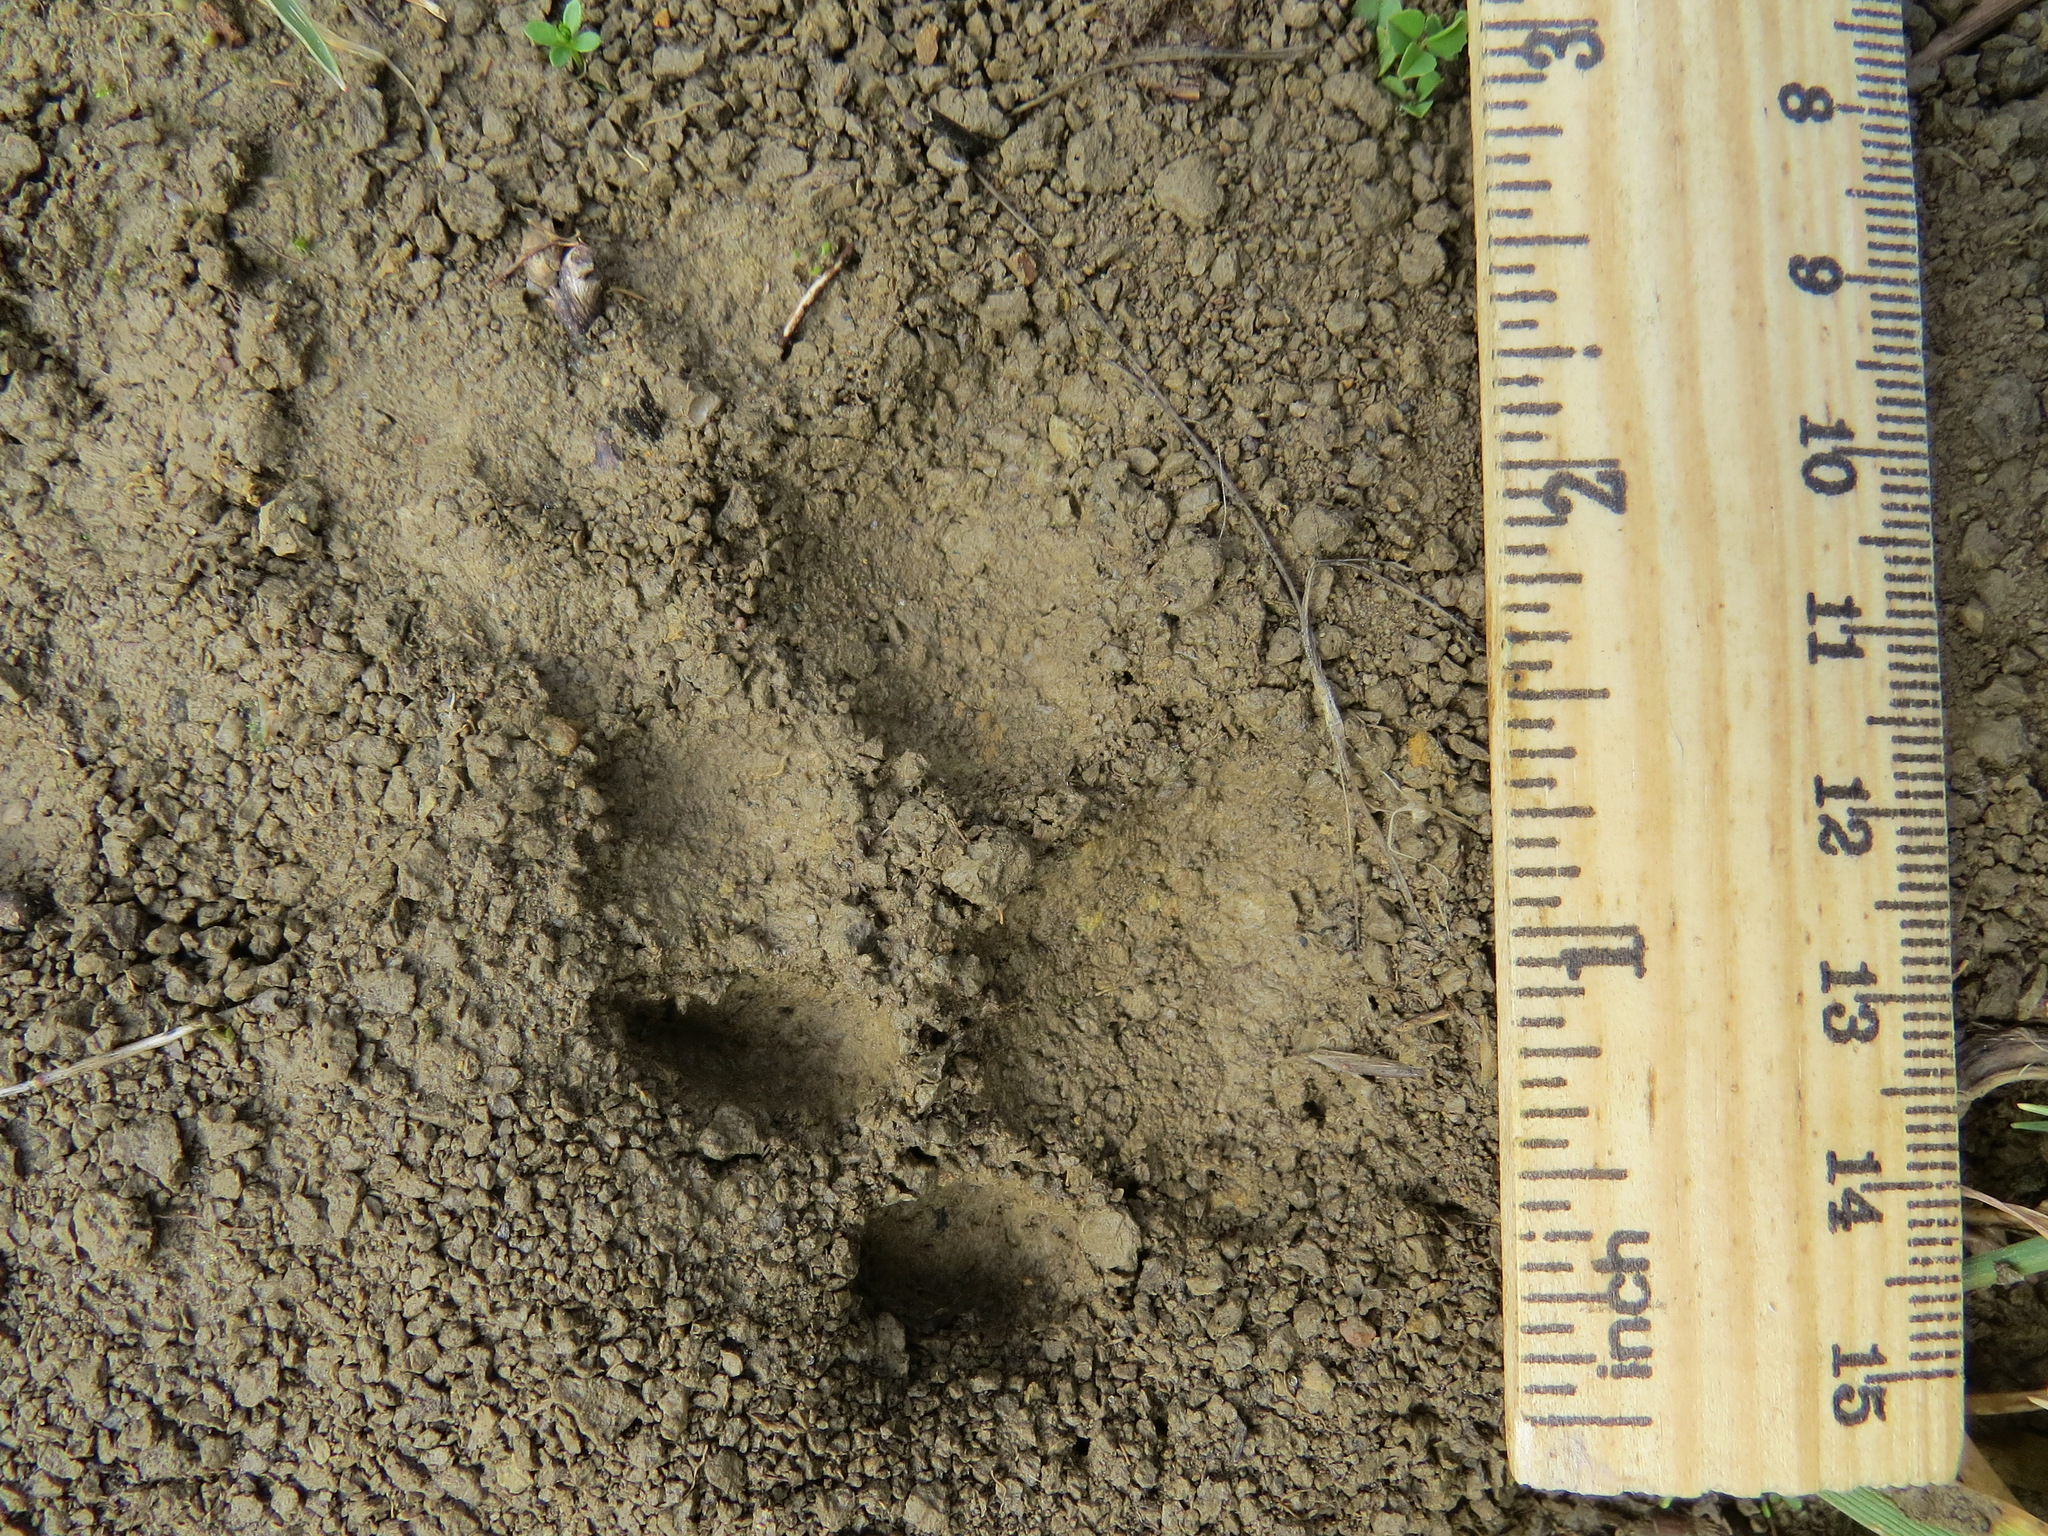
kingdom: Animalia
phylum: Chordata
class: Mammalia
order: Carnivora
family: Felidae
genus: Lynx
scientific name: Lynx rufus
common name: Bobcat
